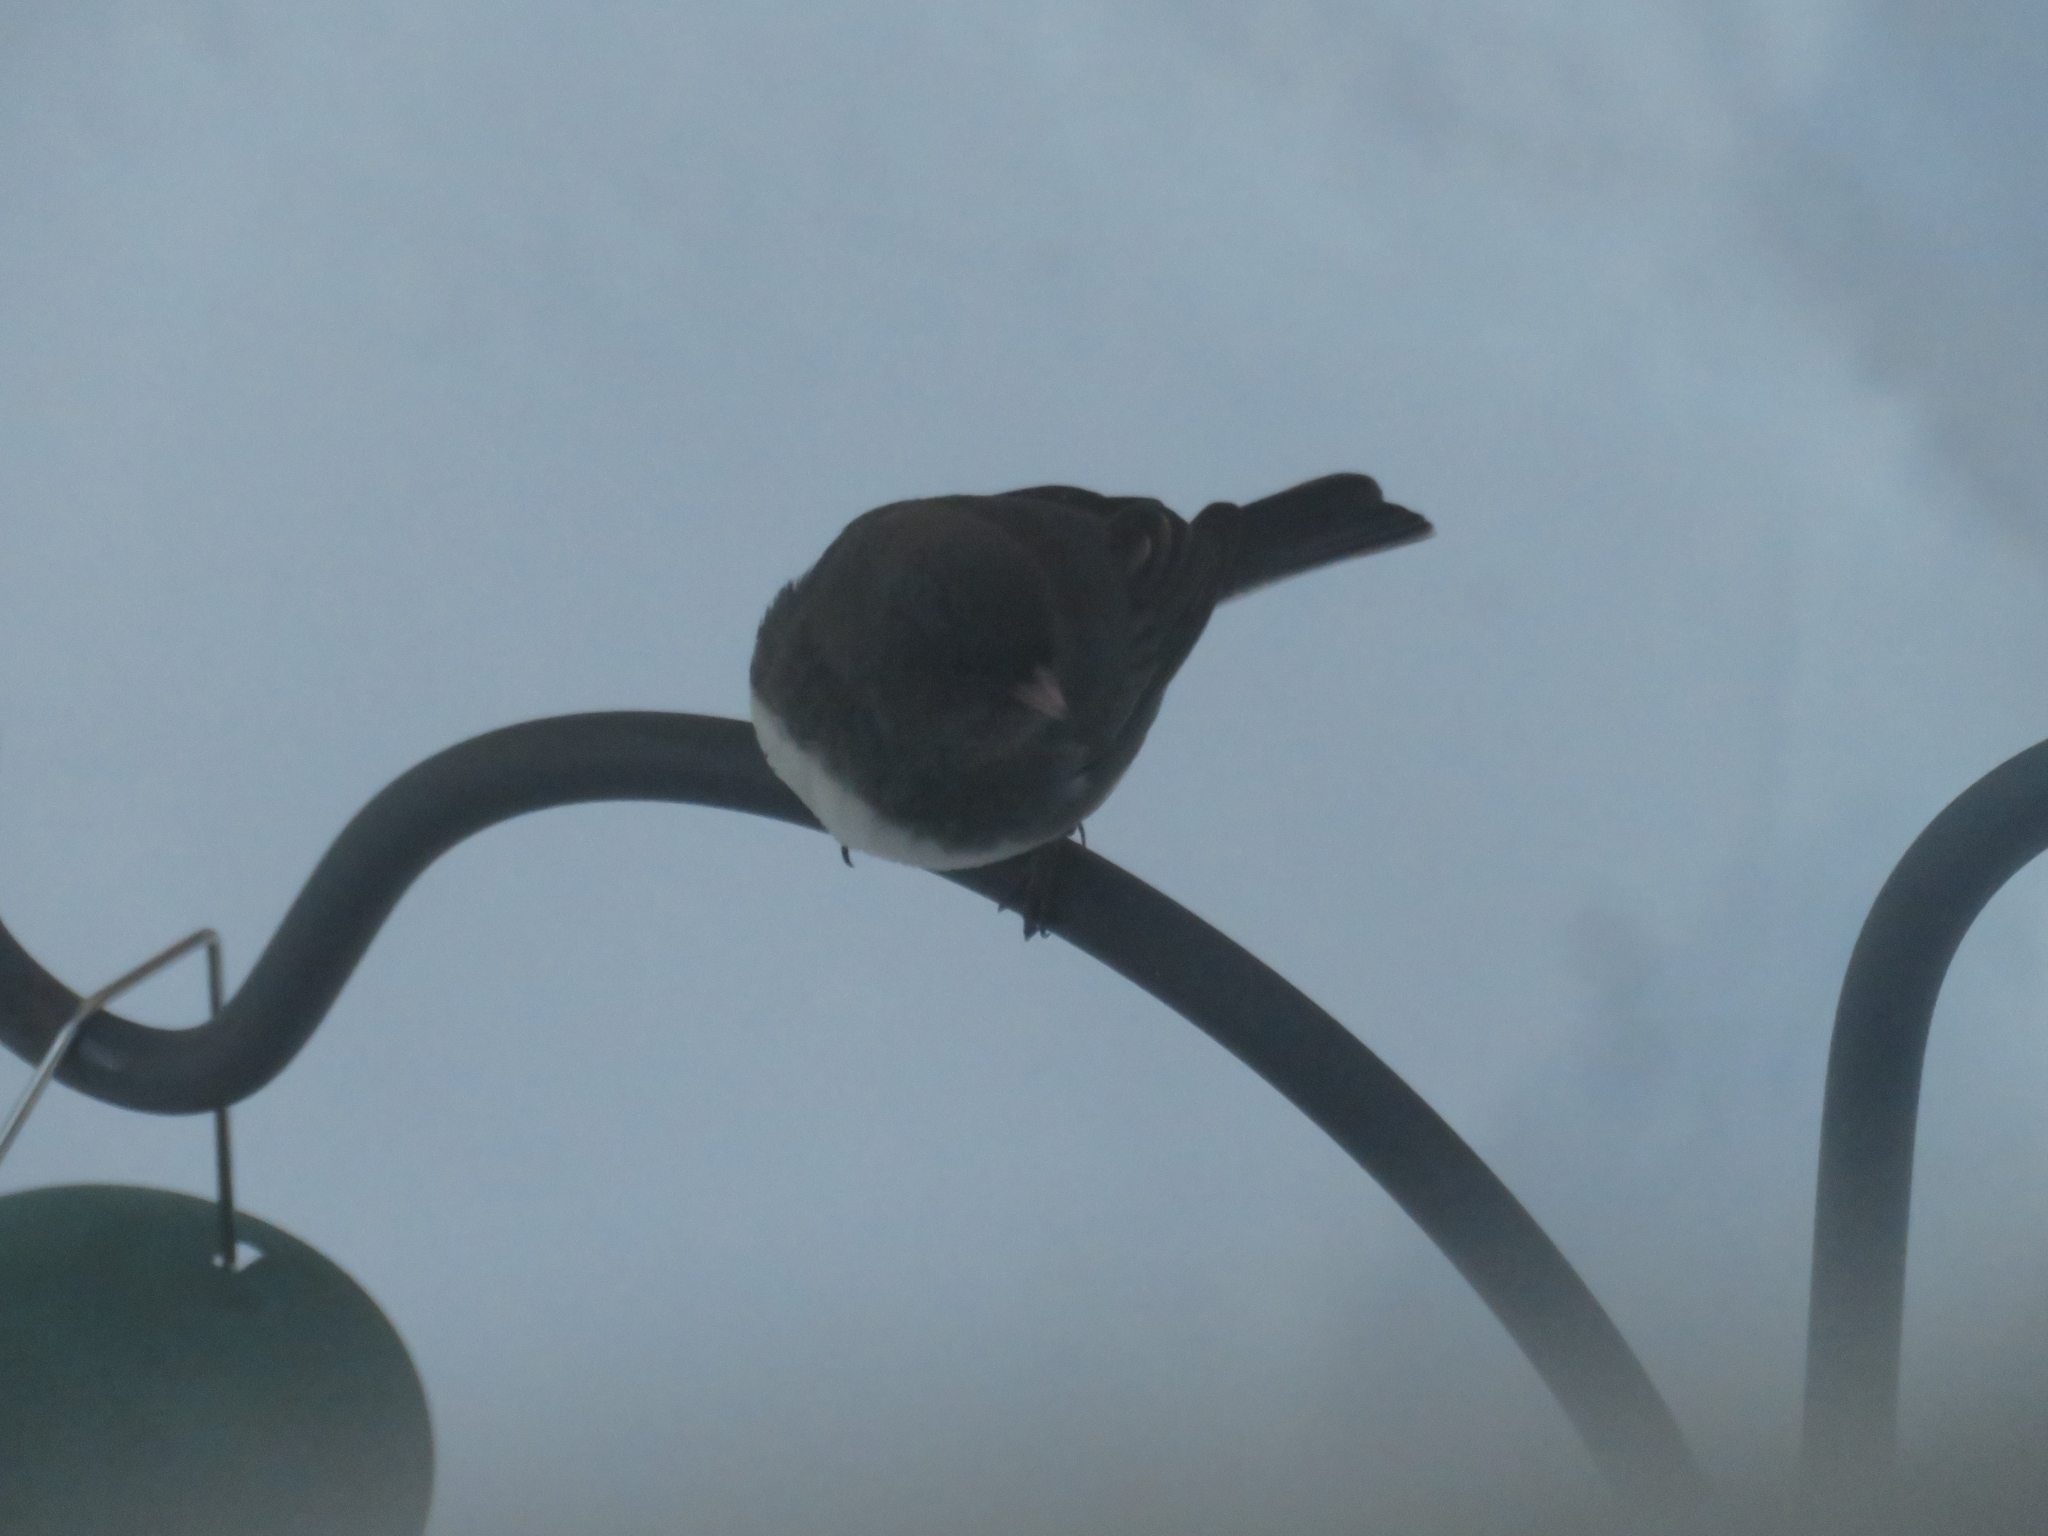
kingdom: Animalia
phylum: Chordata
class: Aves
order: Passeriformes
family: Passerellidae
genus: Junco
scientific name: Junco hyemalis
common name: Dark-eyed junco
